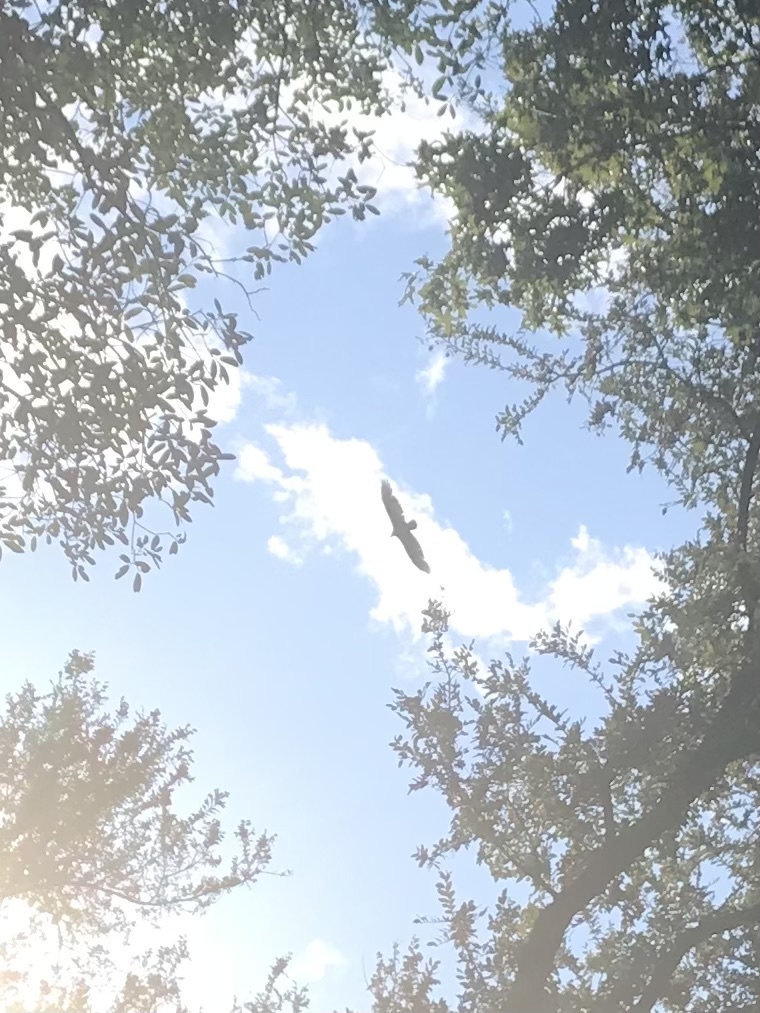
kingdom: Animalia
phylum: Chordata
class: Aves
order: Accipitriformes
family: Cathartidae
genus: Cathartes
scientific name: Cathartes aura
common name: Turkey vulture
